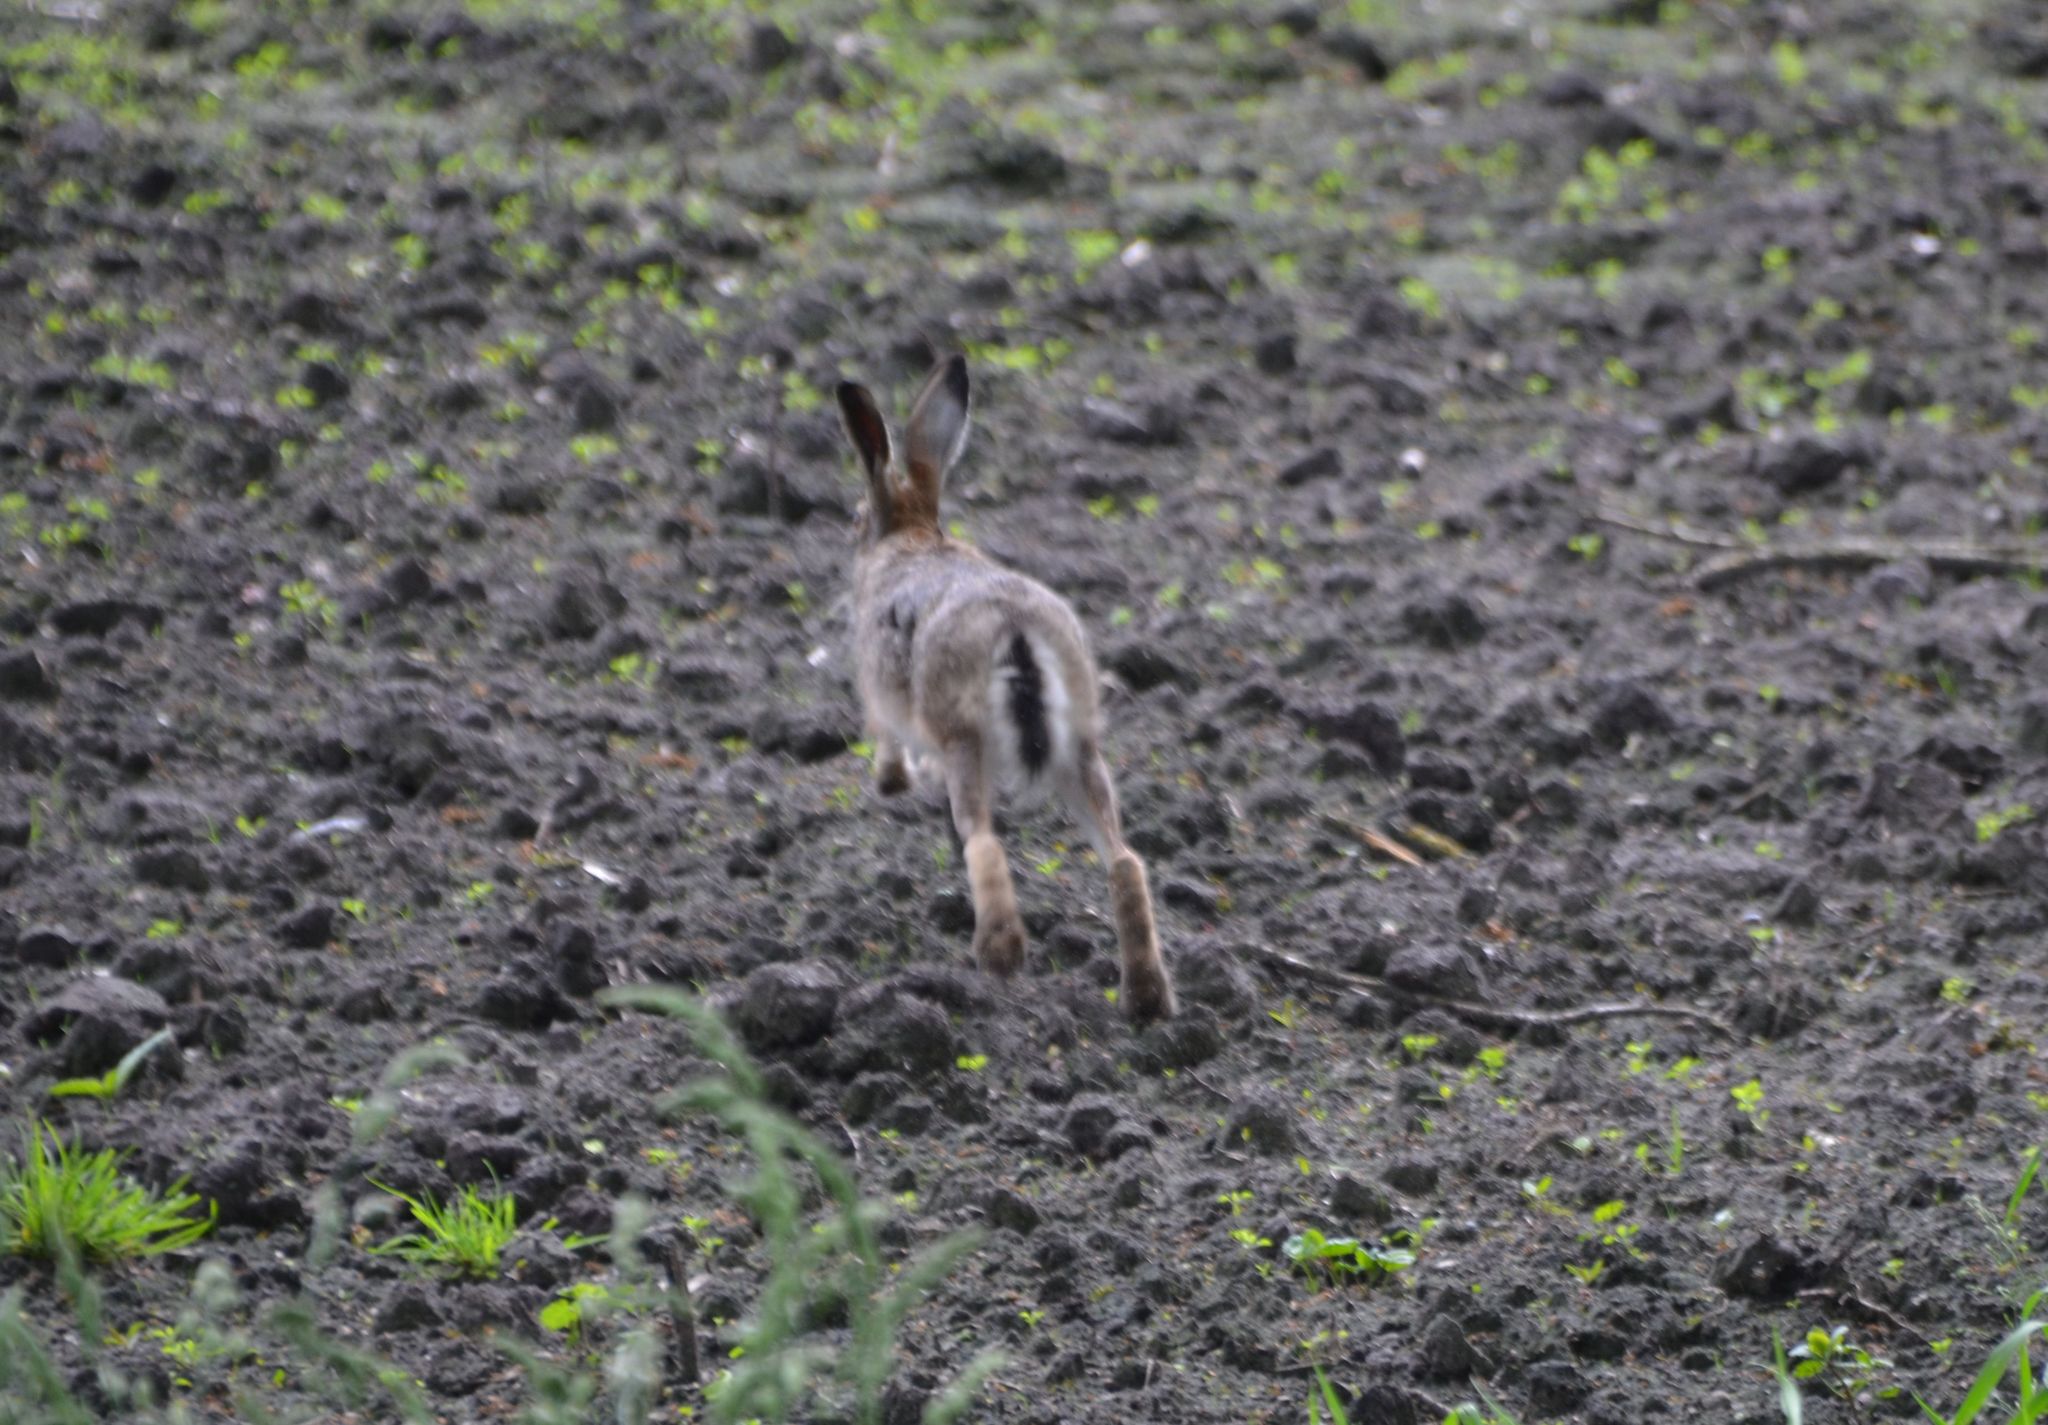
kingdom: Animalia
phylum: Chordata
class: Mammalia
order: Lagomorpha
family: Leporidae
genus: Lepus
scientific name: Lepus europaeus
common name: European hare
